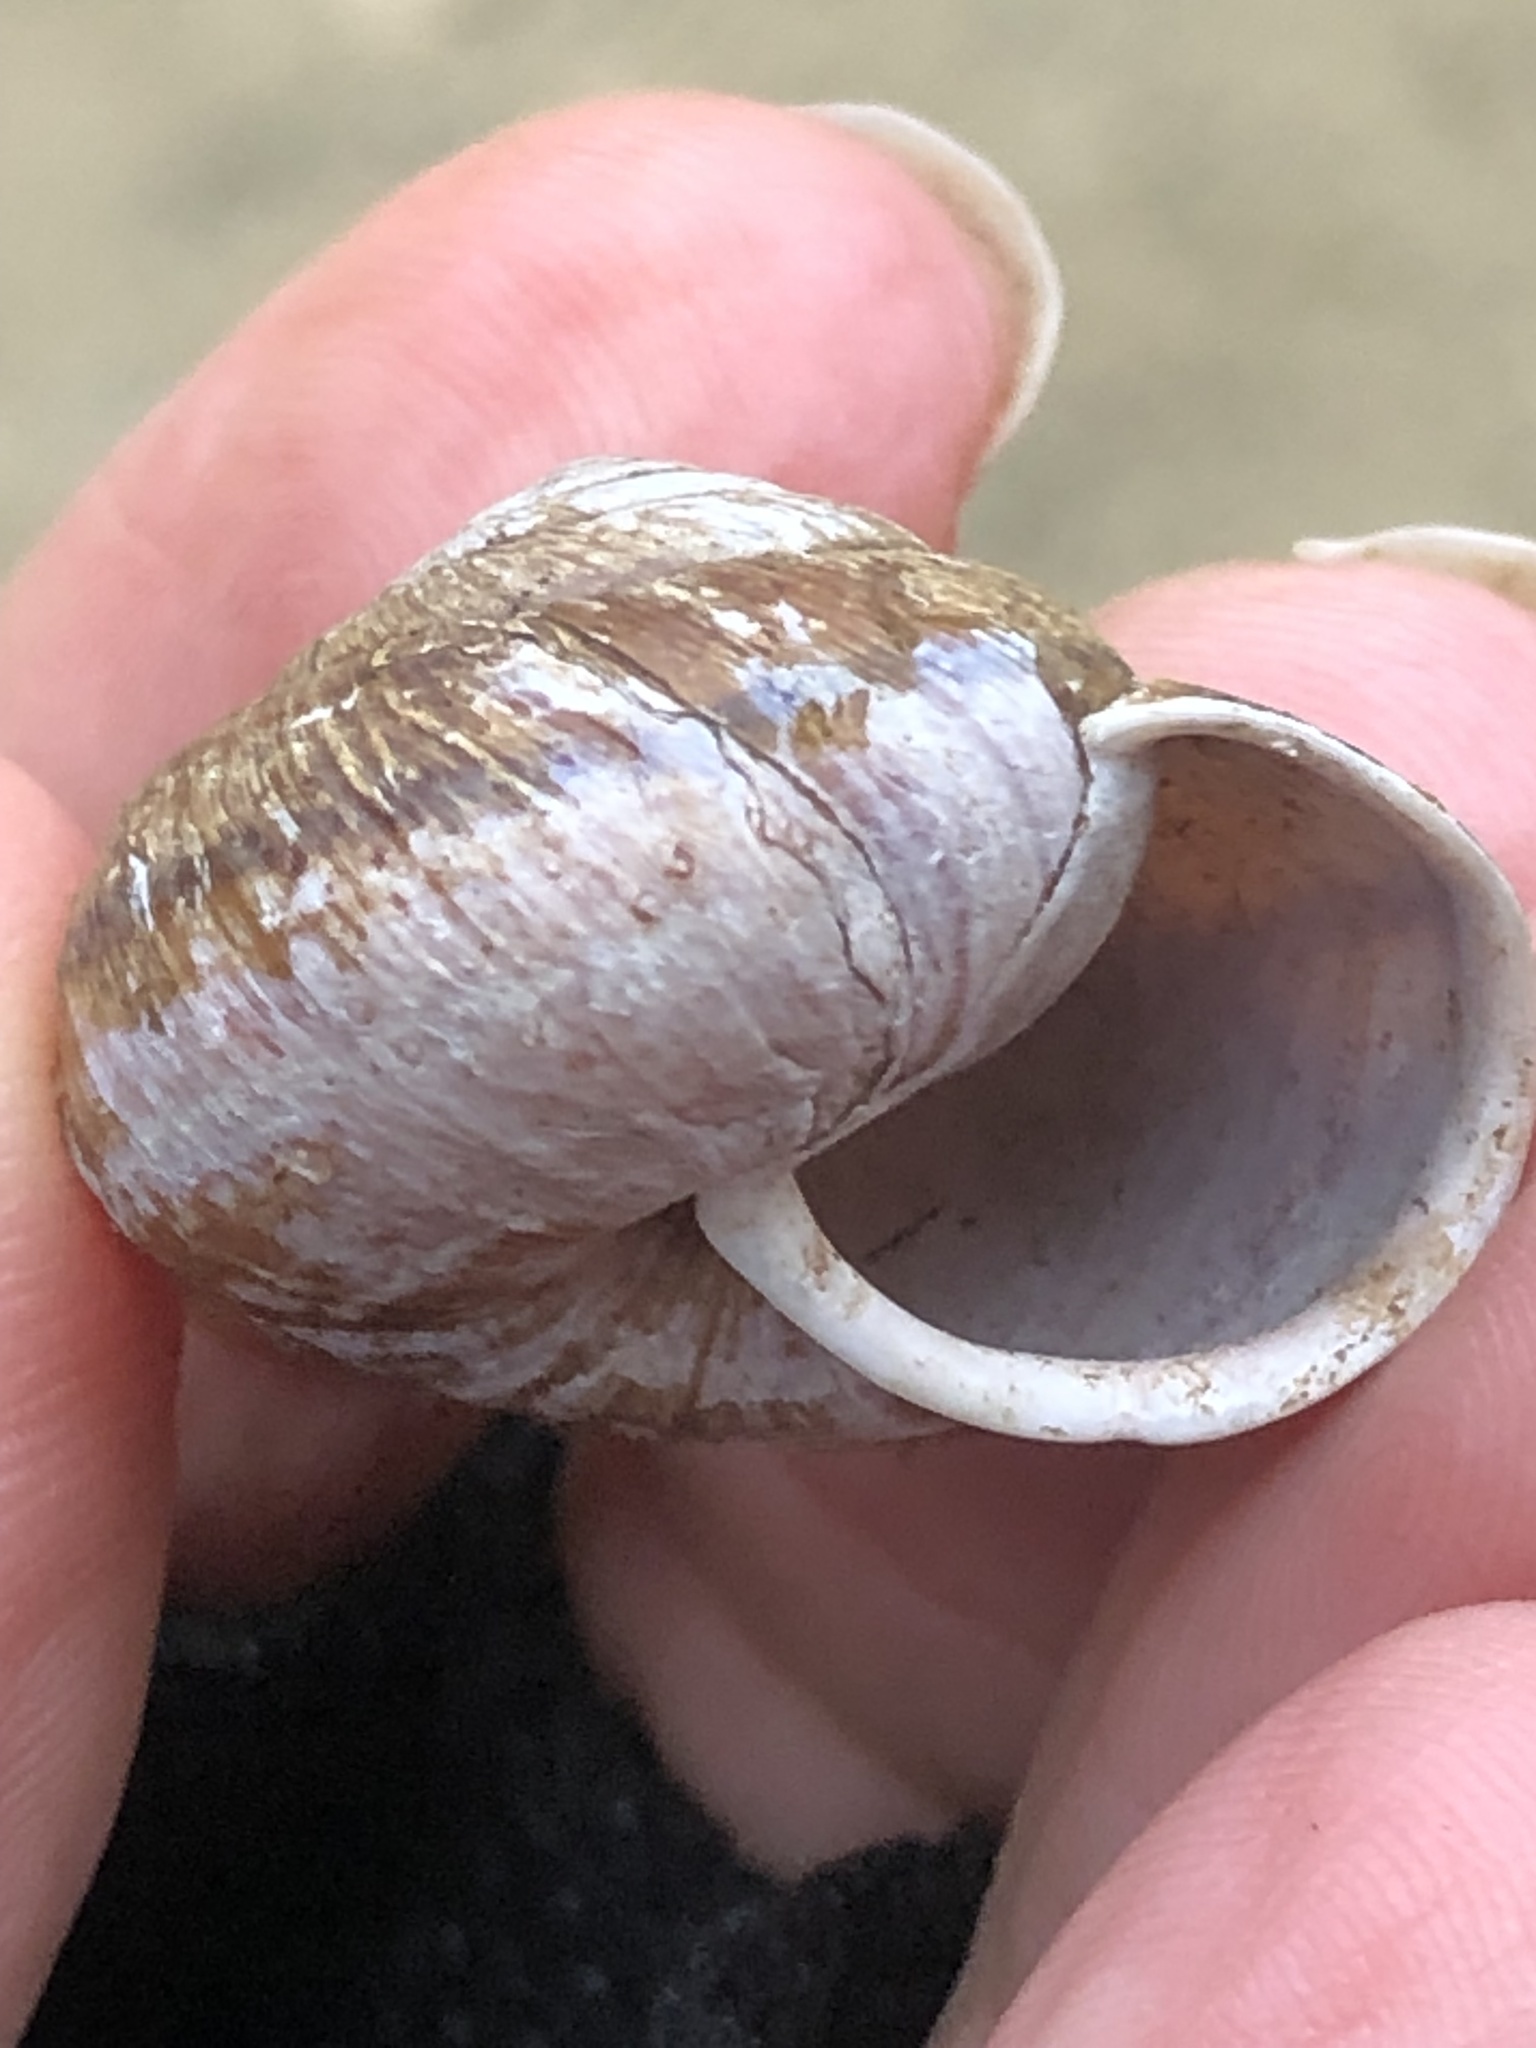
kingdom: Animalia
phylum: Mollusca
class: Gastropoda
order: Stylommatophora
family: Xanthonychidae
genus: Helminthoglypta
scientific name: Helminthoglypta arrosa
